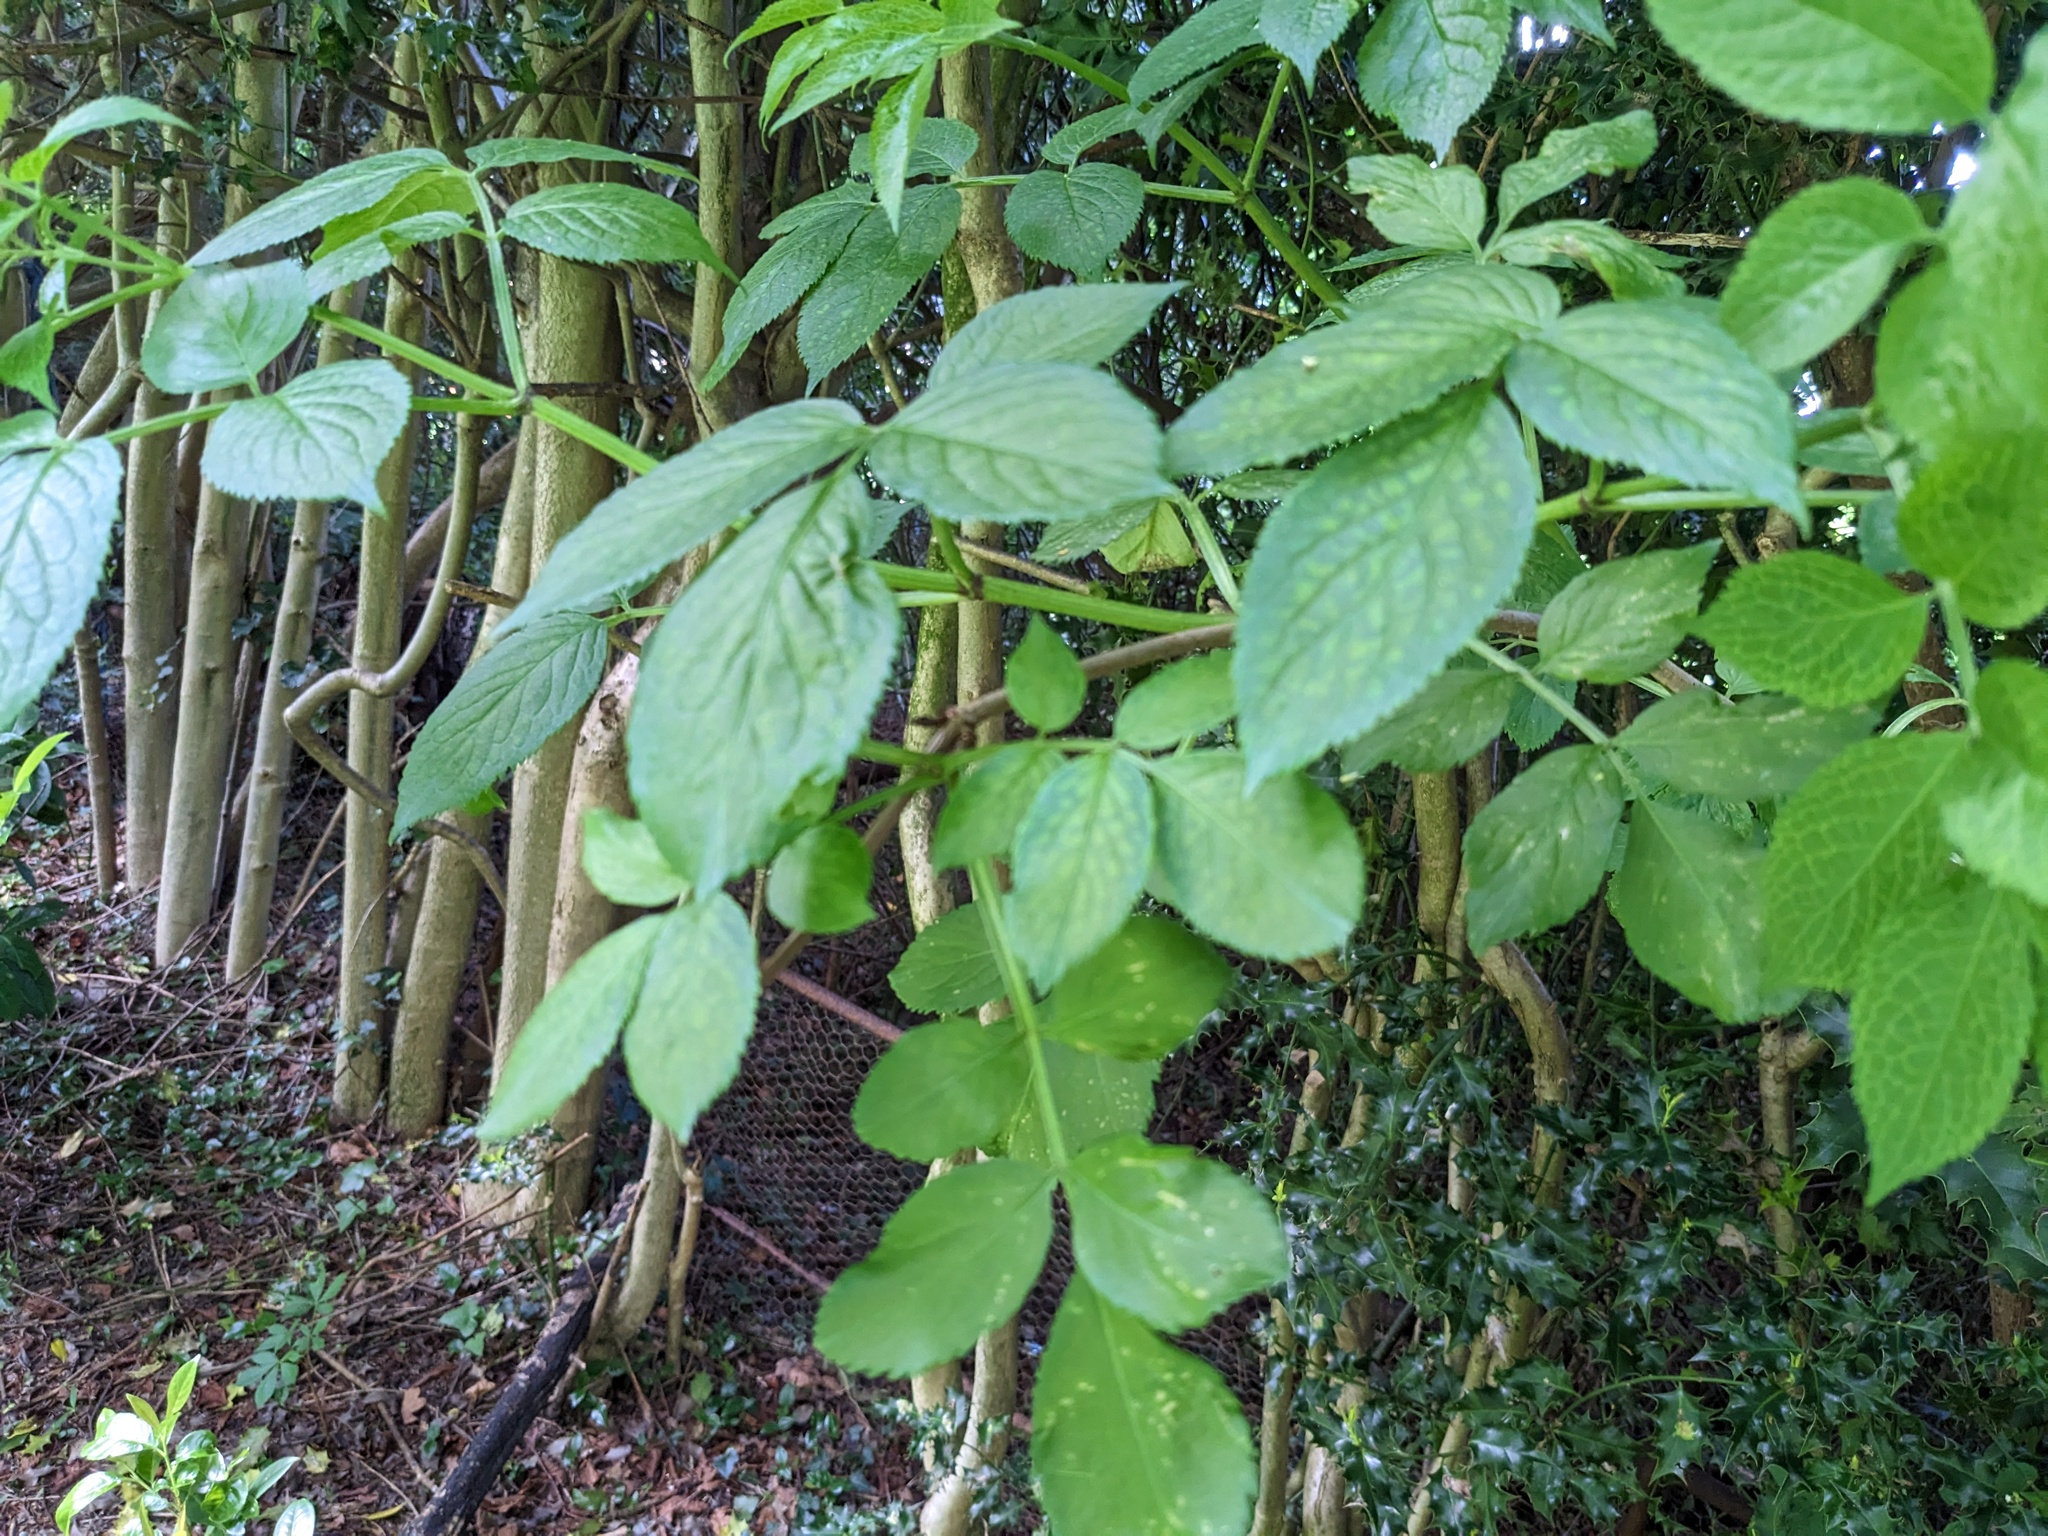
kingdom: Plantae
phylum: Tracheophyta
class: Magnoliopsida
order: Dipsacales
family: Viburnaceae
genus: Sambucus
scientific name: Sambucus nigra
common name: Elder
